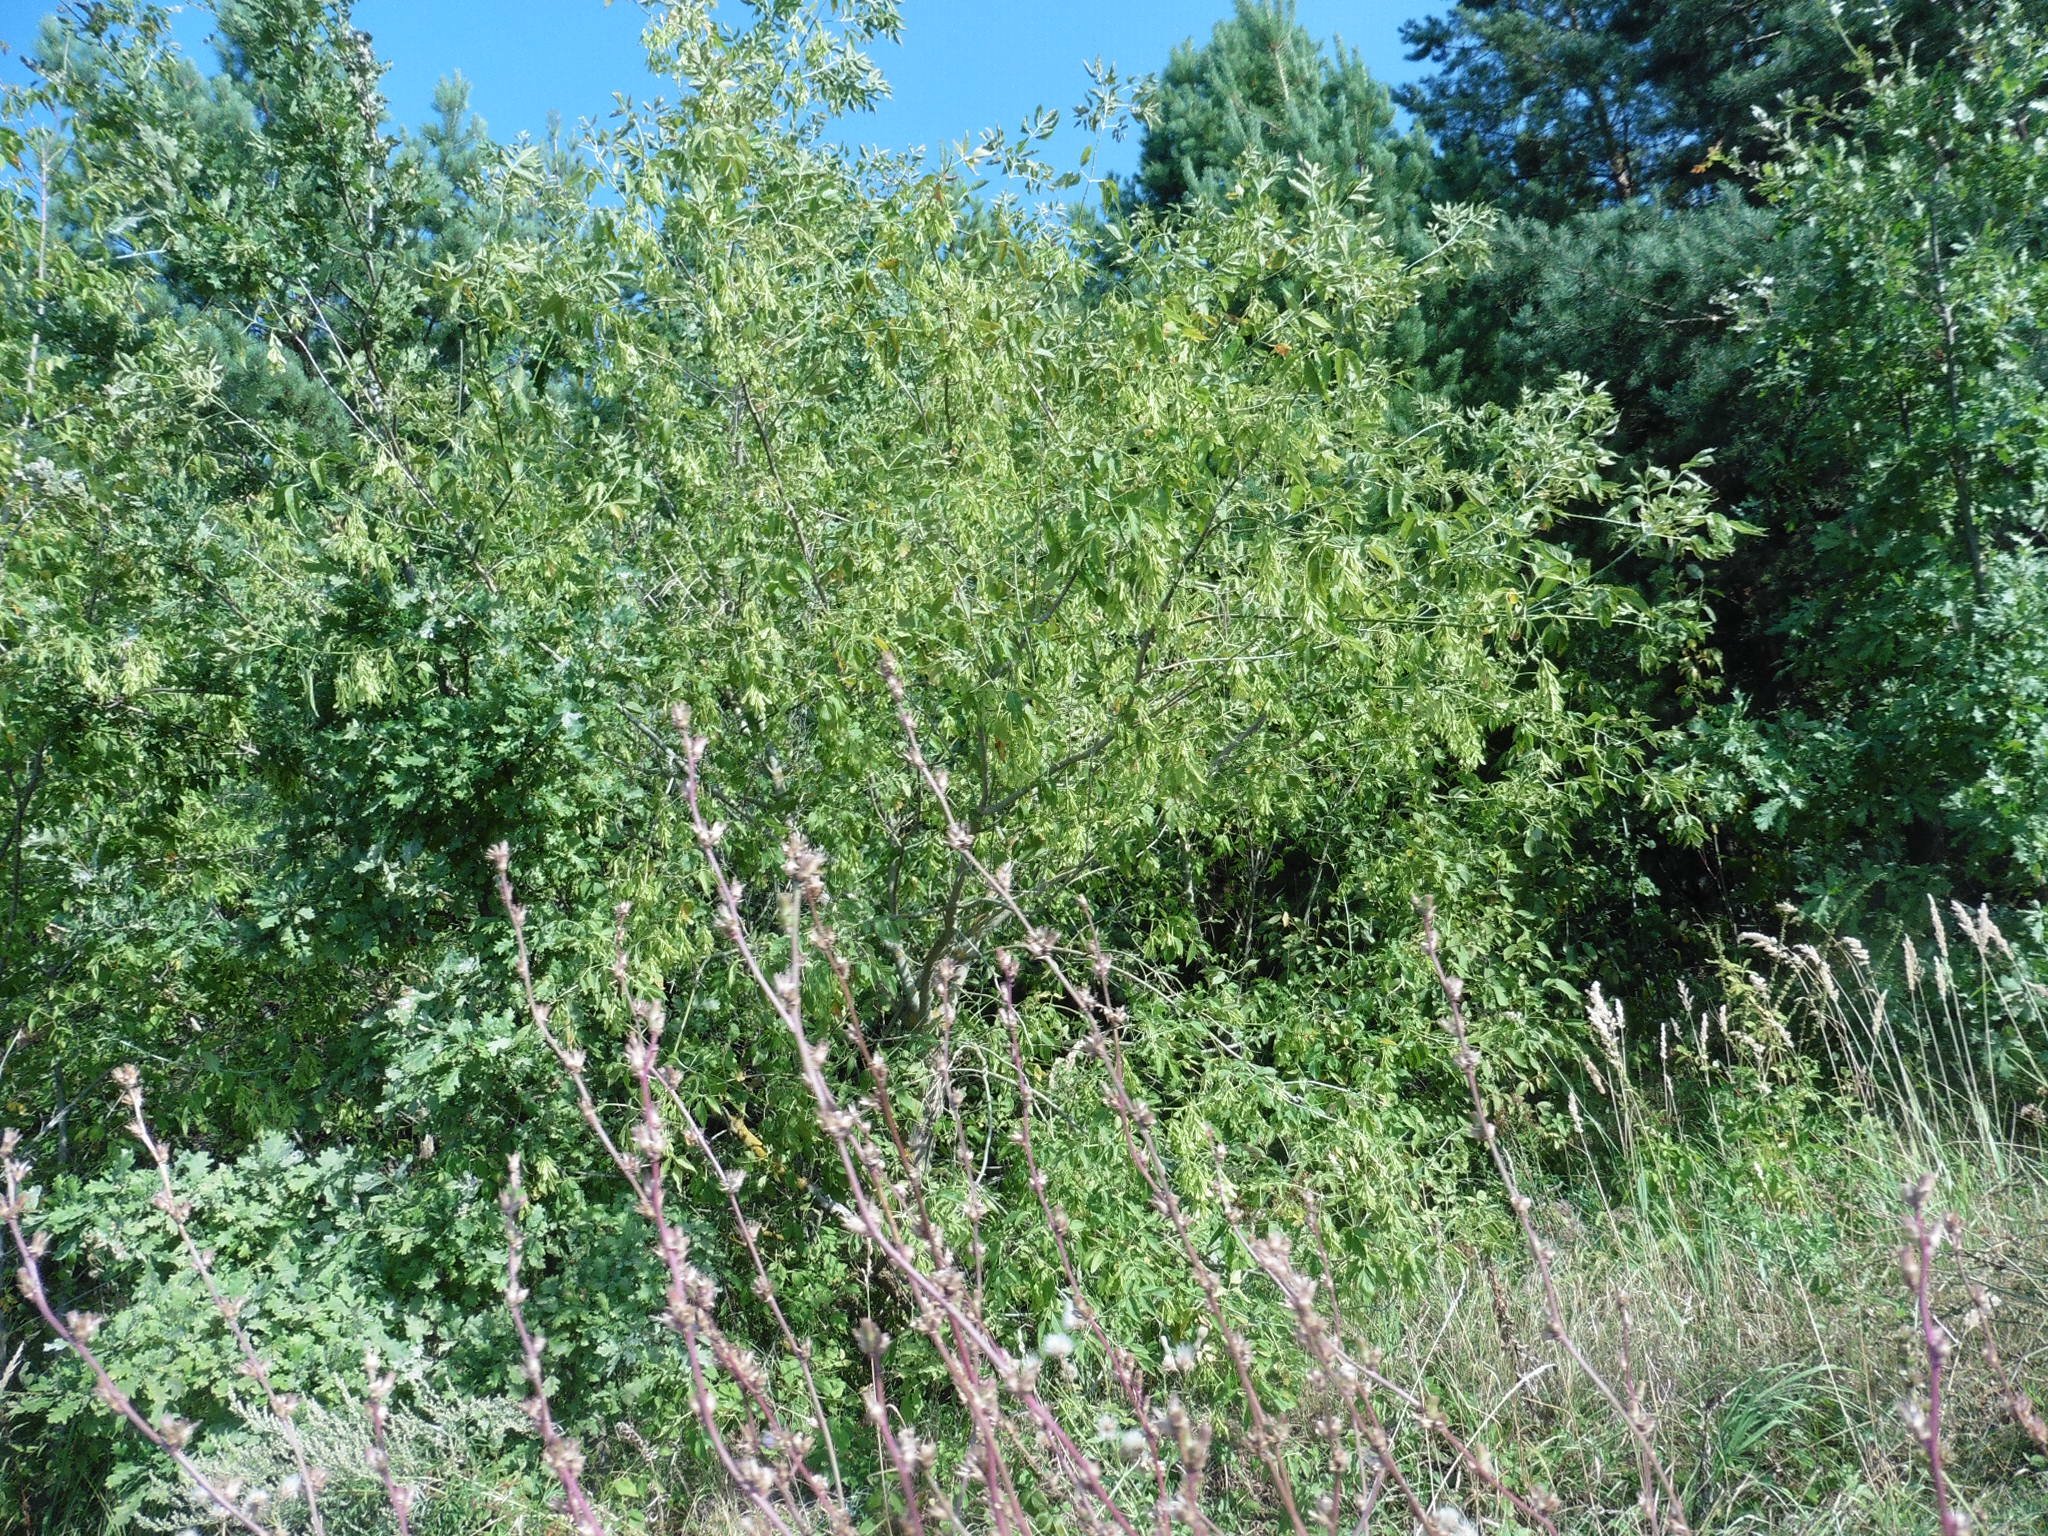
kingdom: Plantae
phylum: Tracheophyta
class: Magnoliopsida
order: Sapindales
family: Sapindaceae
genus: Acer
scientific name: Acer negundo
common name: Ashleaf maple
